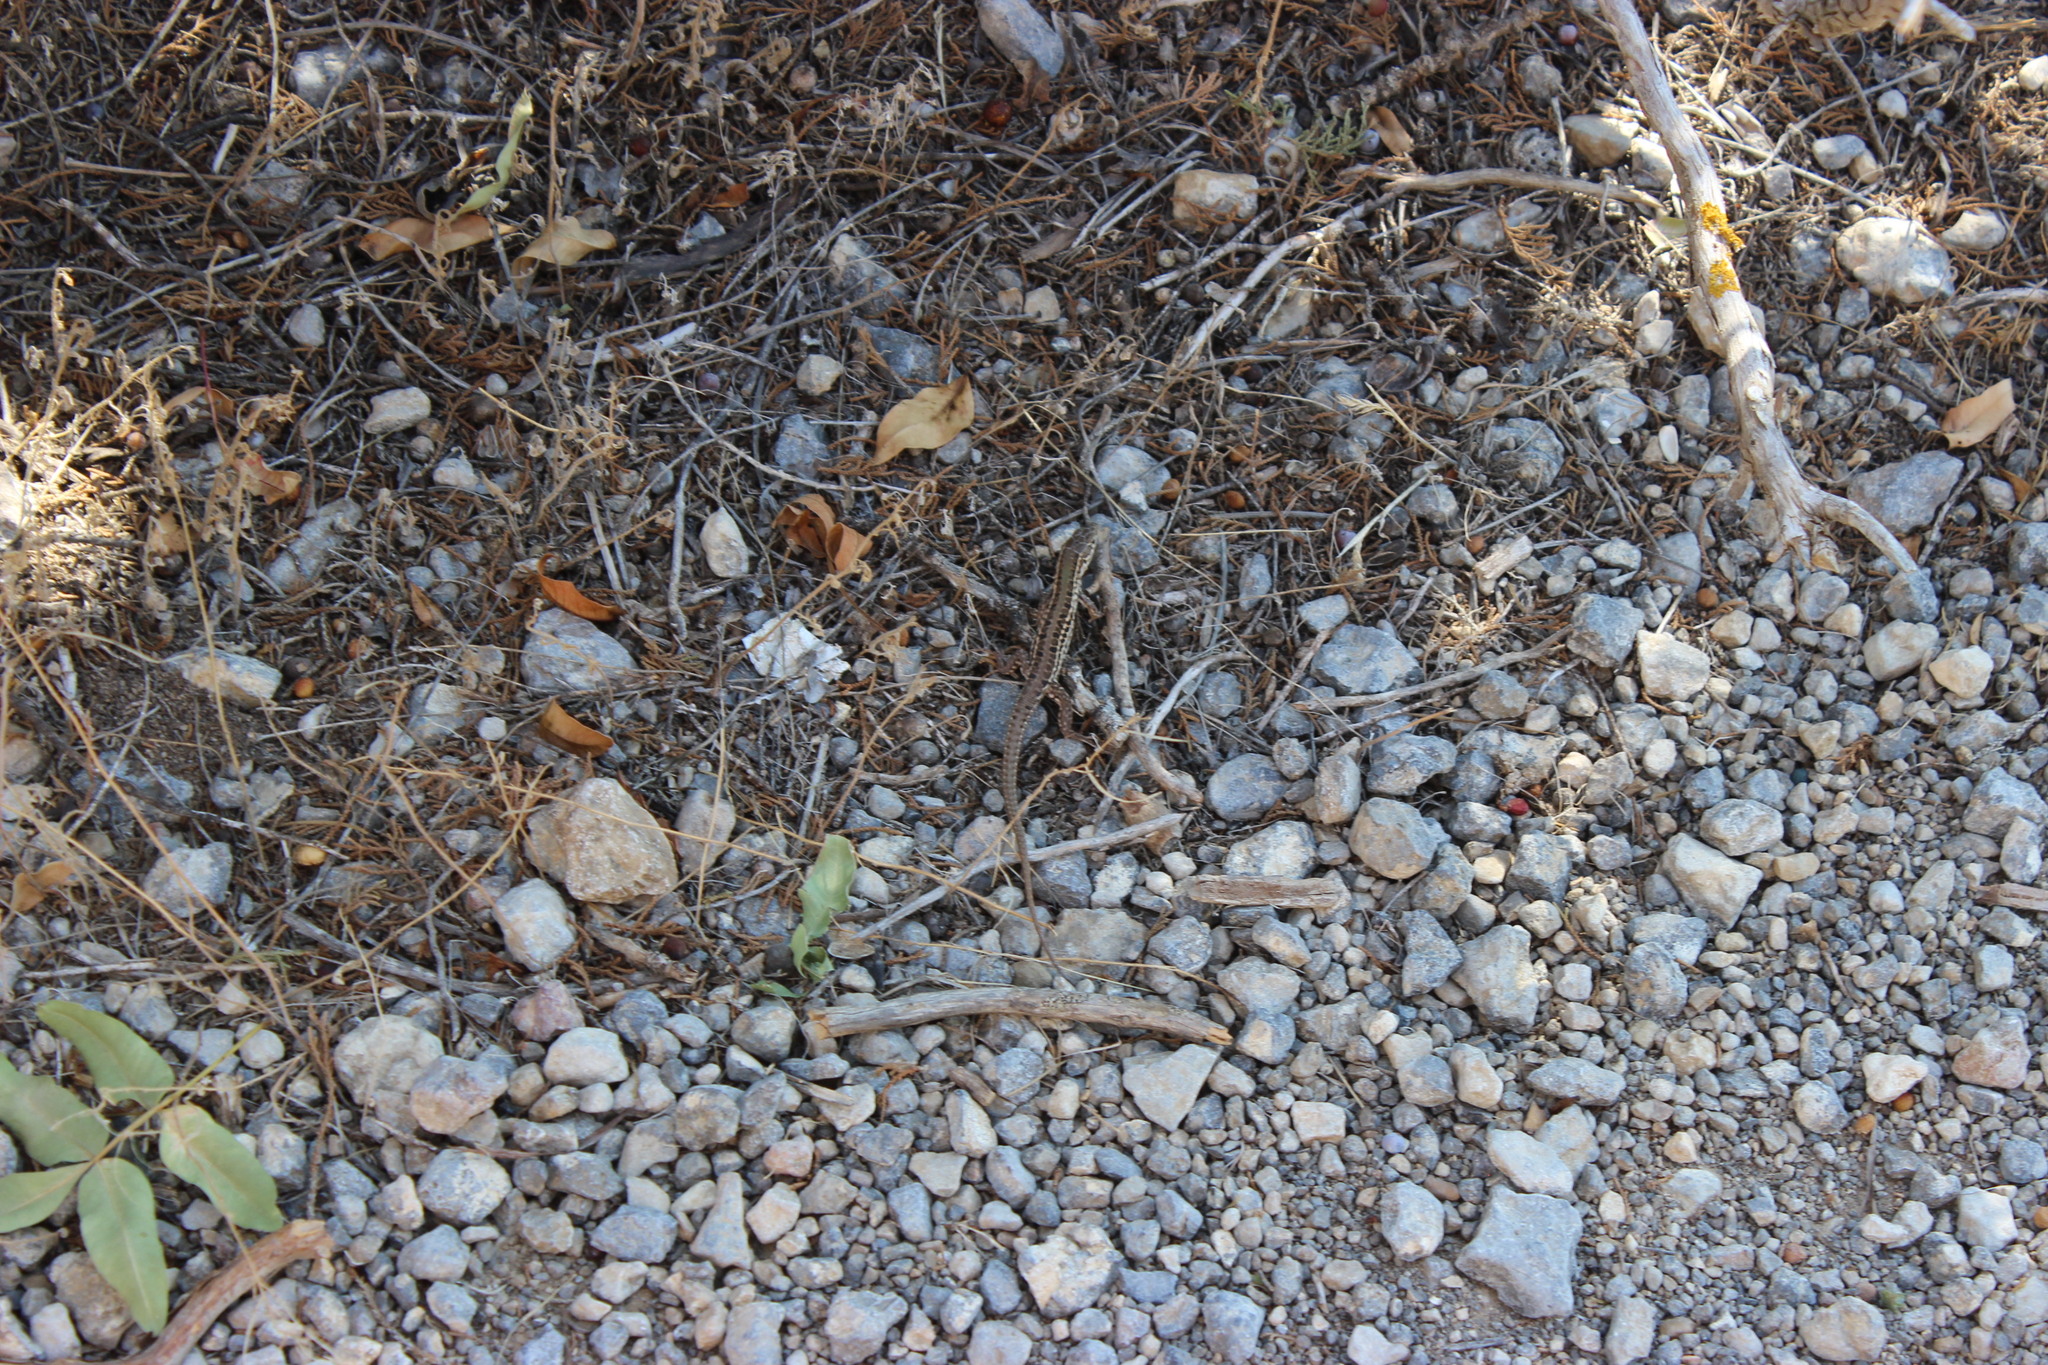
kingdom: Animalia
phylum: Chordata
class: Squamata
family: Lacertidae
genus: Podarcis
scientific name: Podarcis tauricus
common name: Balkan wall lizard
